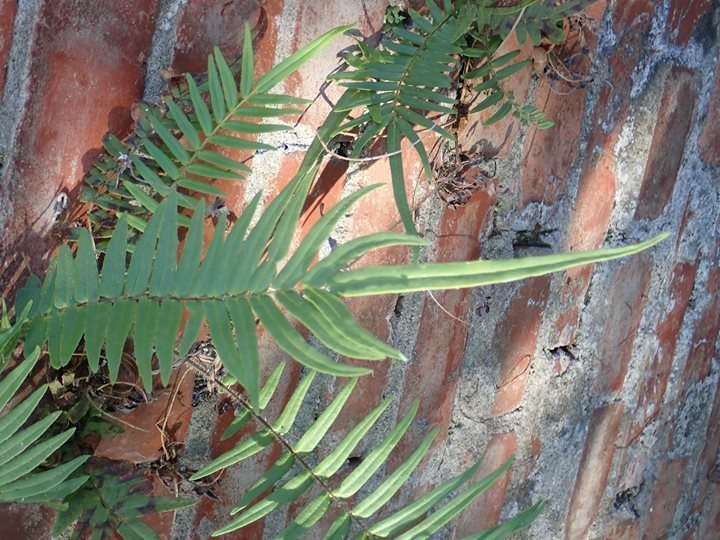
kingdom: Plantae
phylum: Tracheophyta
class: Polypodiopsida
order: Polypodiales
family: Pteridaceae
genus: Pteris
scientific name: Pteris vittata
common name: Ladder brake
